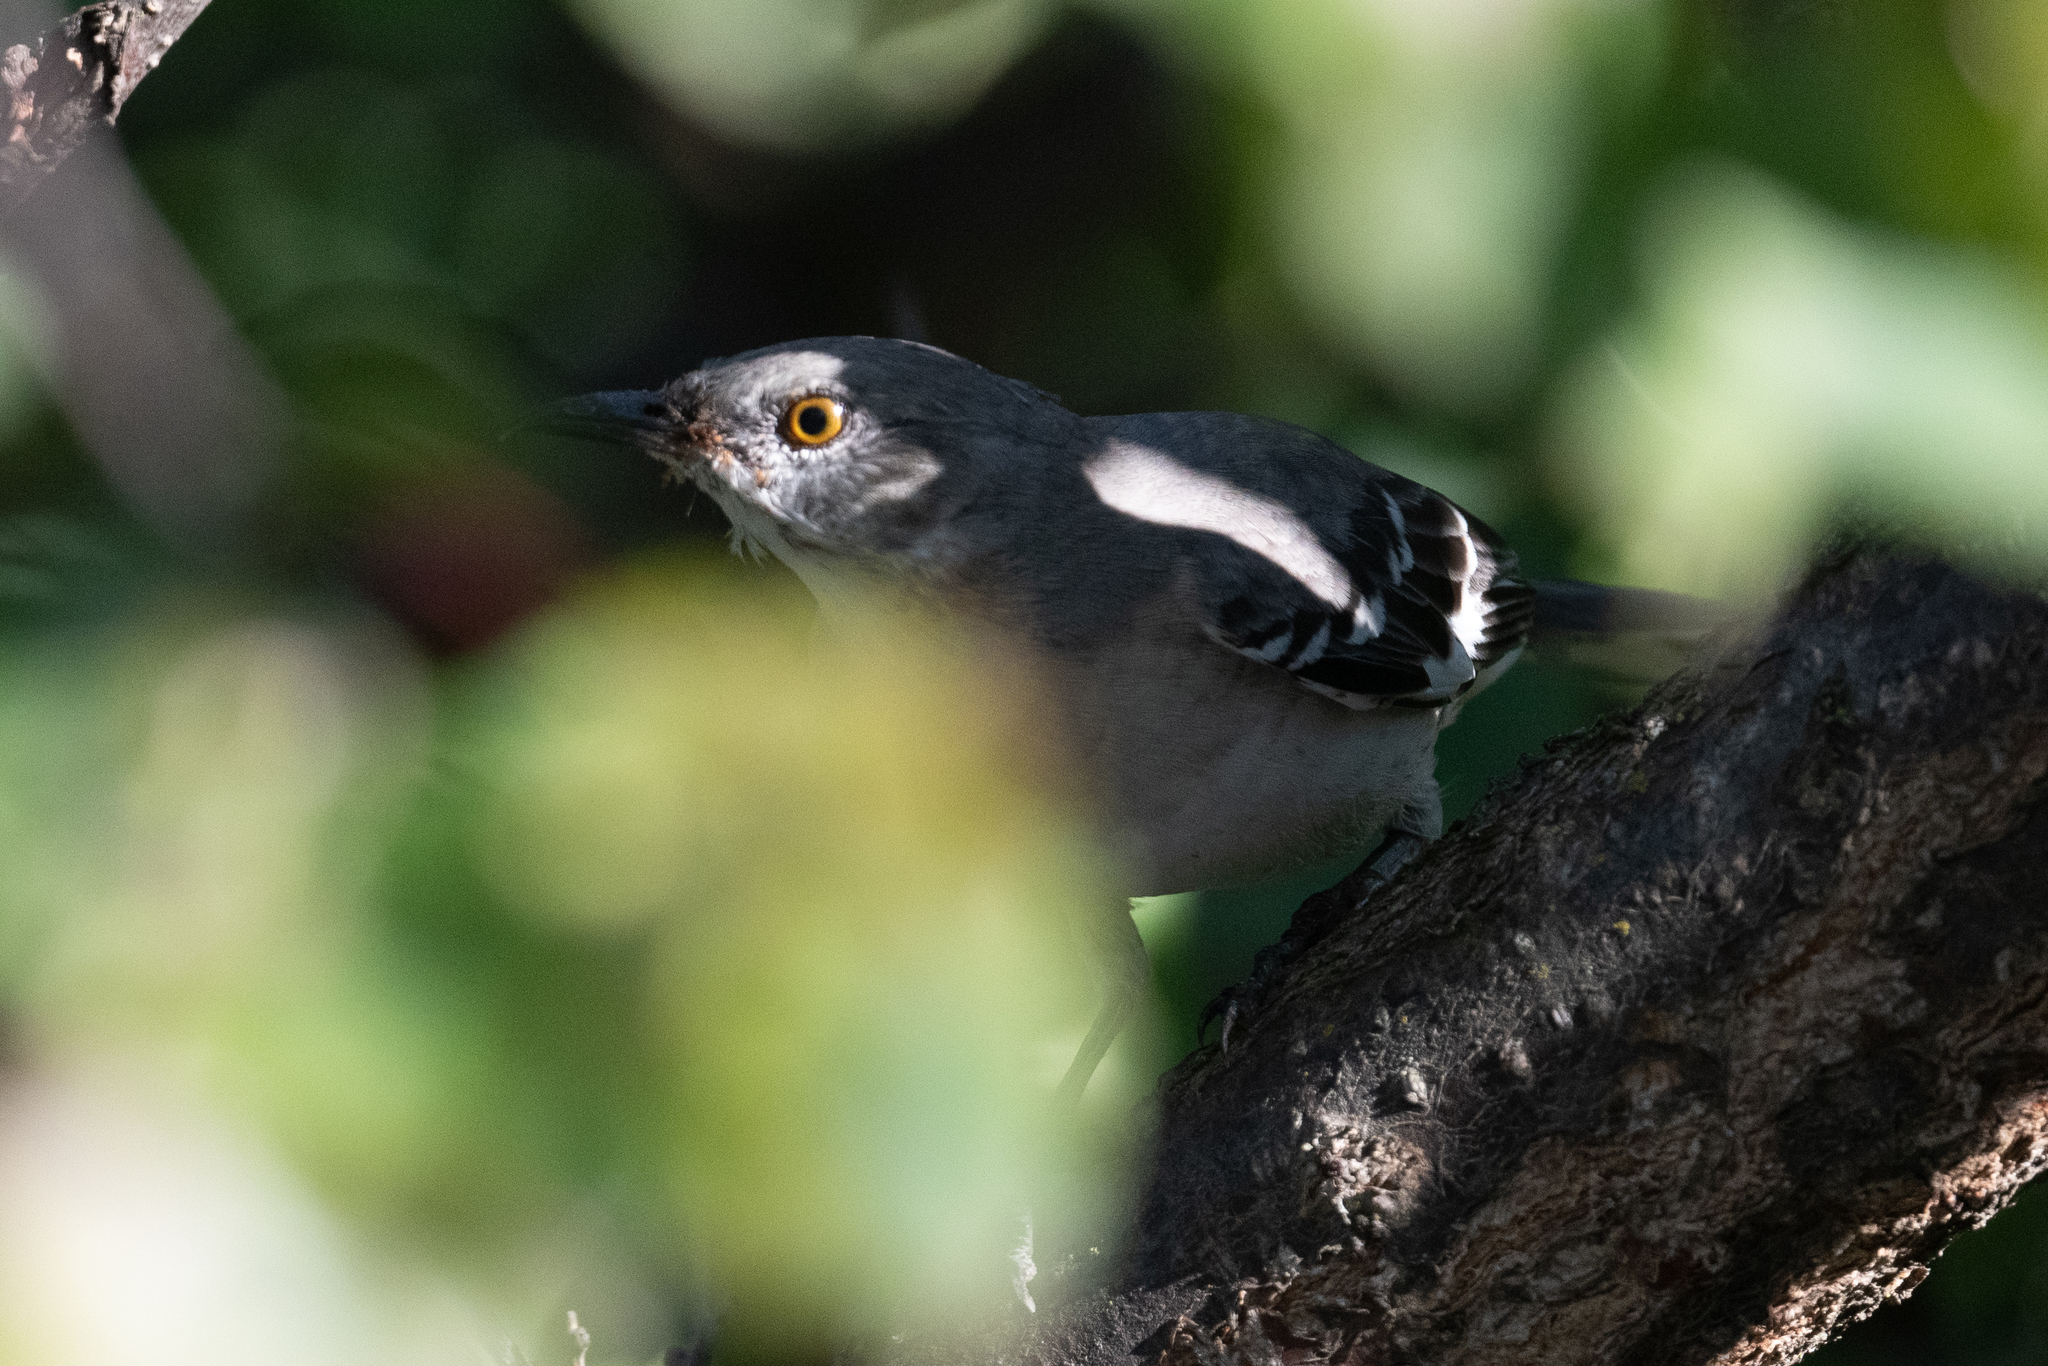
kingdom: Animalia
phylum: Chordata
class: Aves
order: Passeriformes
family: Mimidae
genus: Mimus
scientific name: Mimus polyglottos
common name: Northern mockingbird
